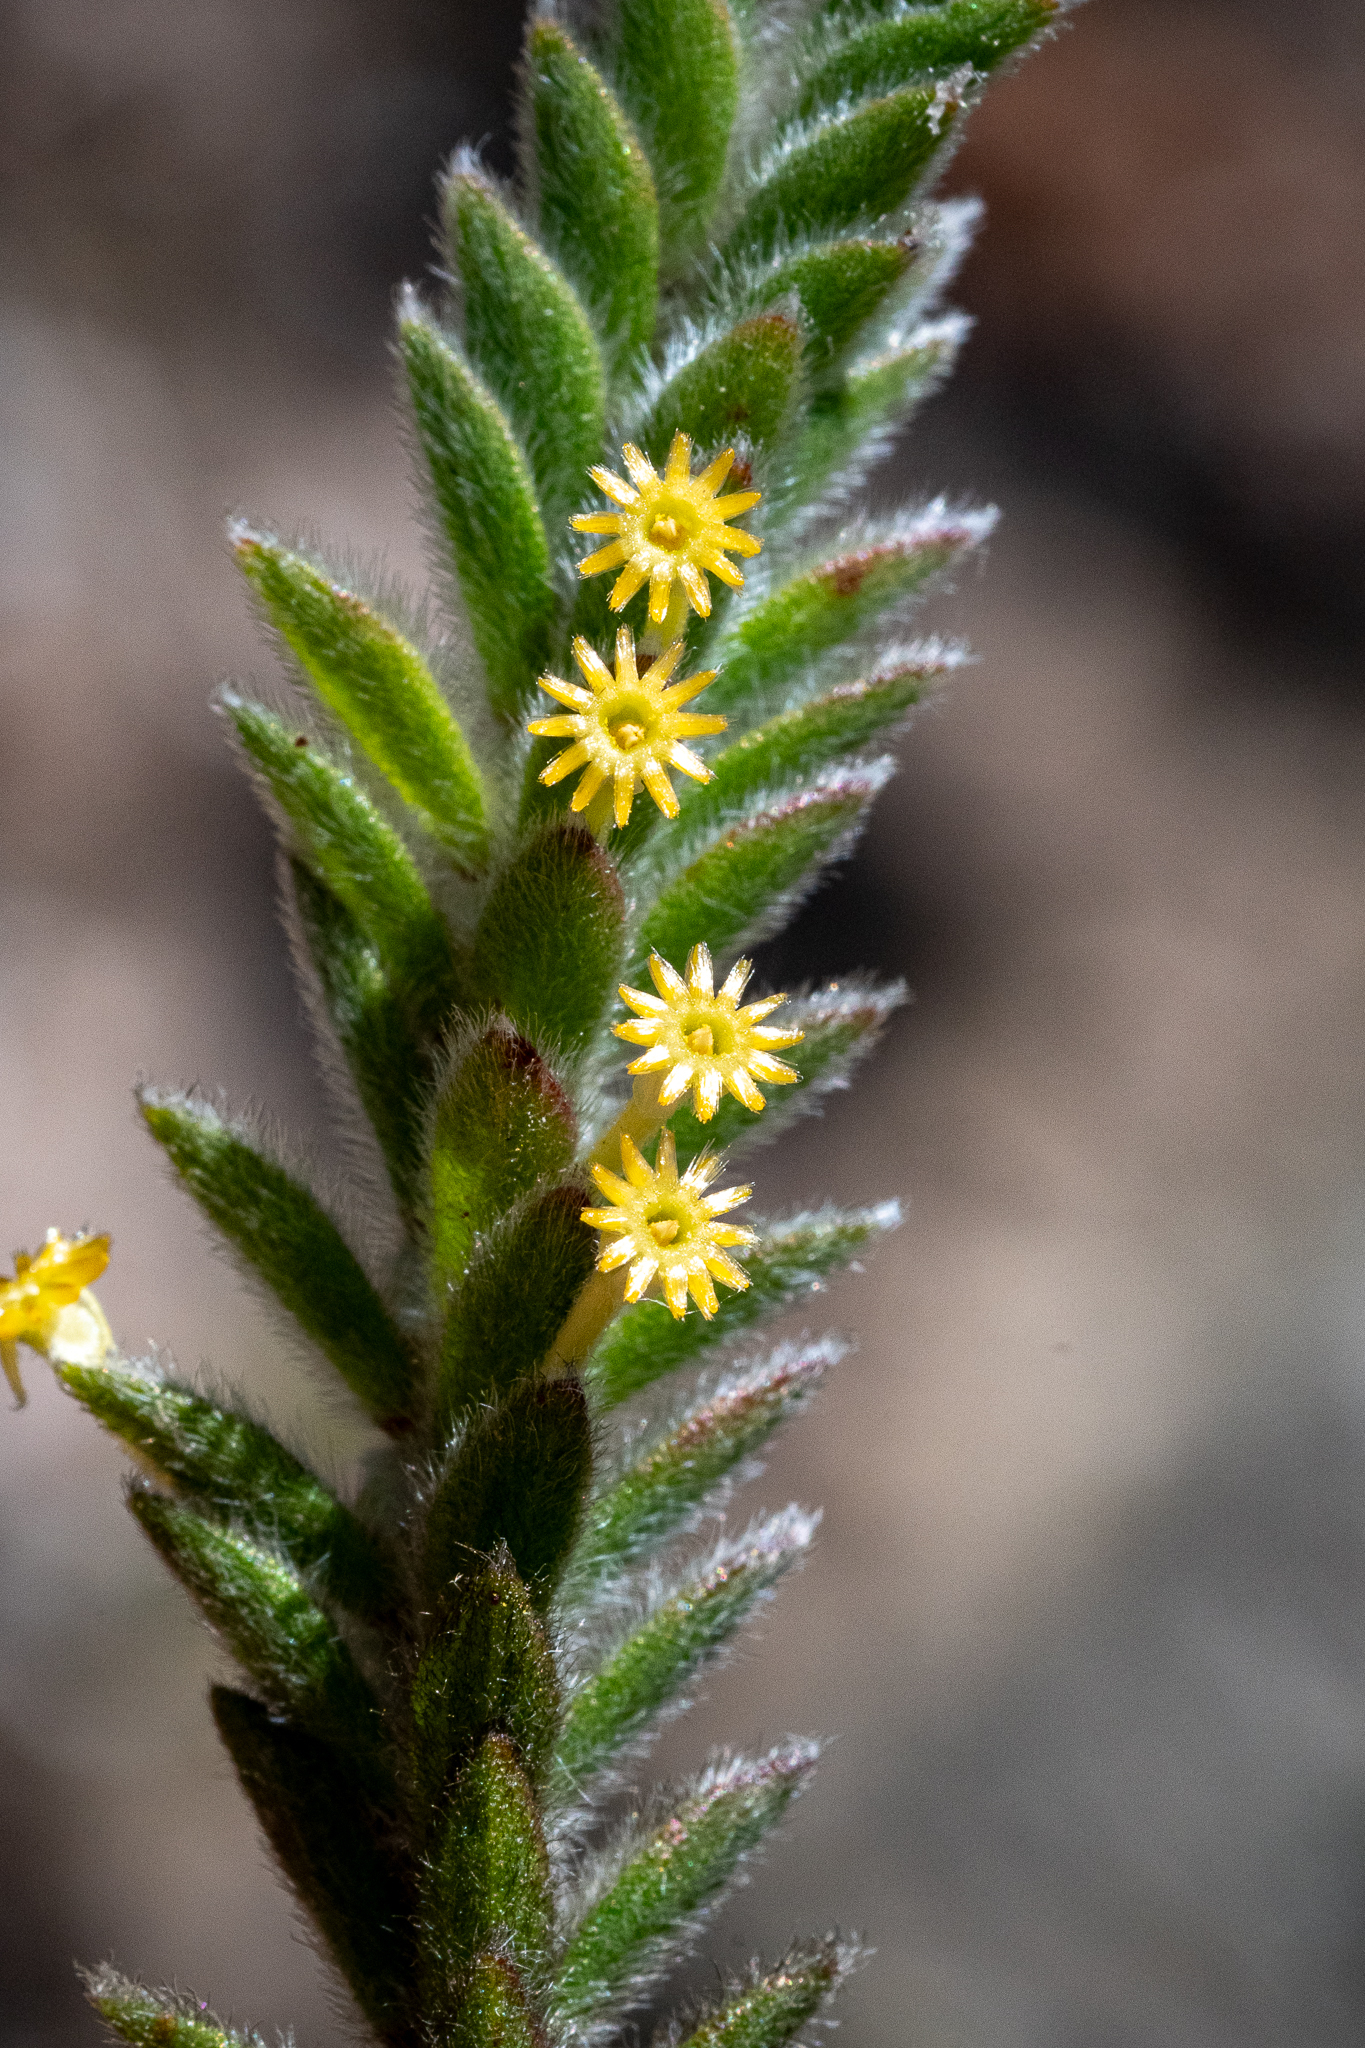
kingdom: Plantae
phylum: Tracheophyta
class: Magnoliopsida
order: Malvales
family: Thymelaeaceae
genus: Struthiola
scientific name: Struthiola tomentosa
